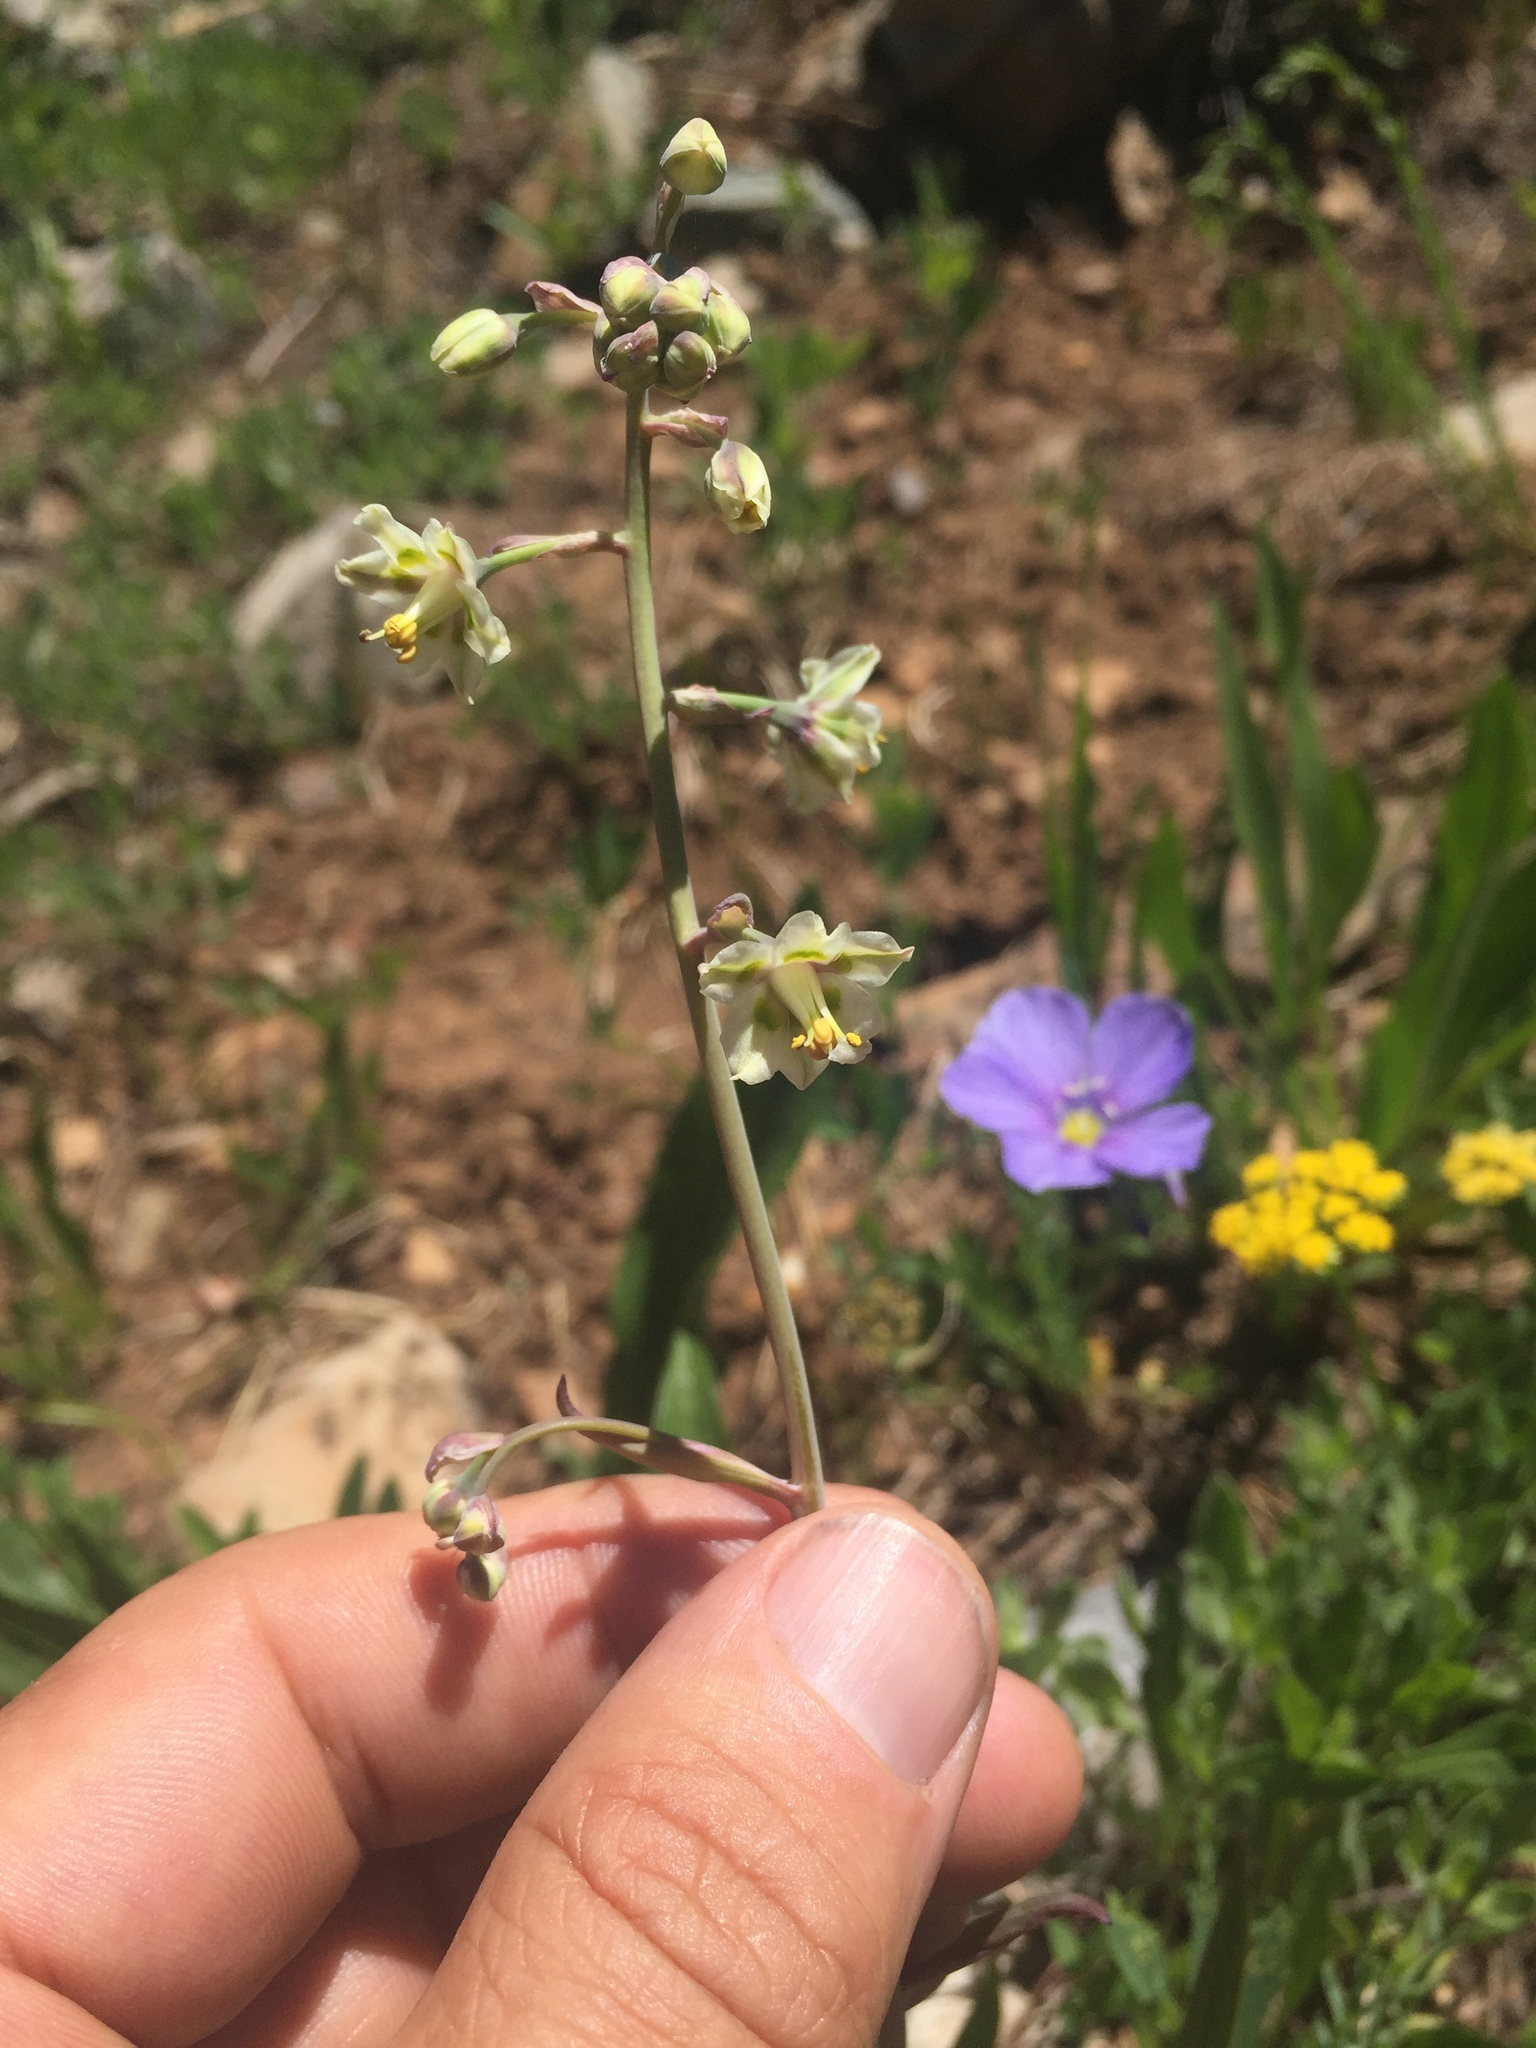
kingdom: Plantae
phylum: Tracheophyta
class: Liliopsida
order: Liliales
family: Melanthiaceae
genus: Anticlea
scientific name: Anticlea elegans
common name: Mountain death camas
